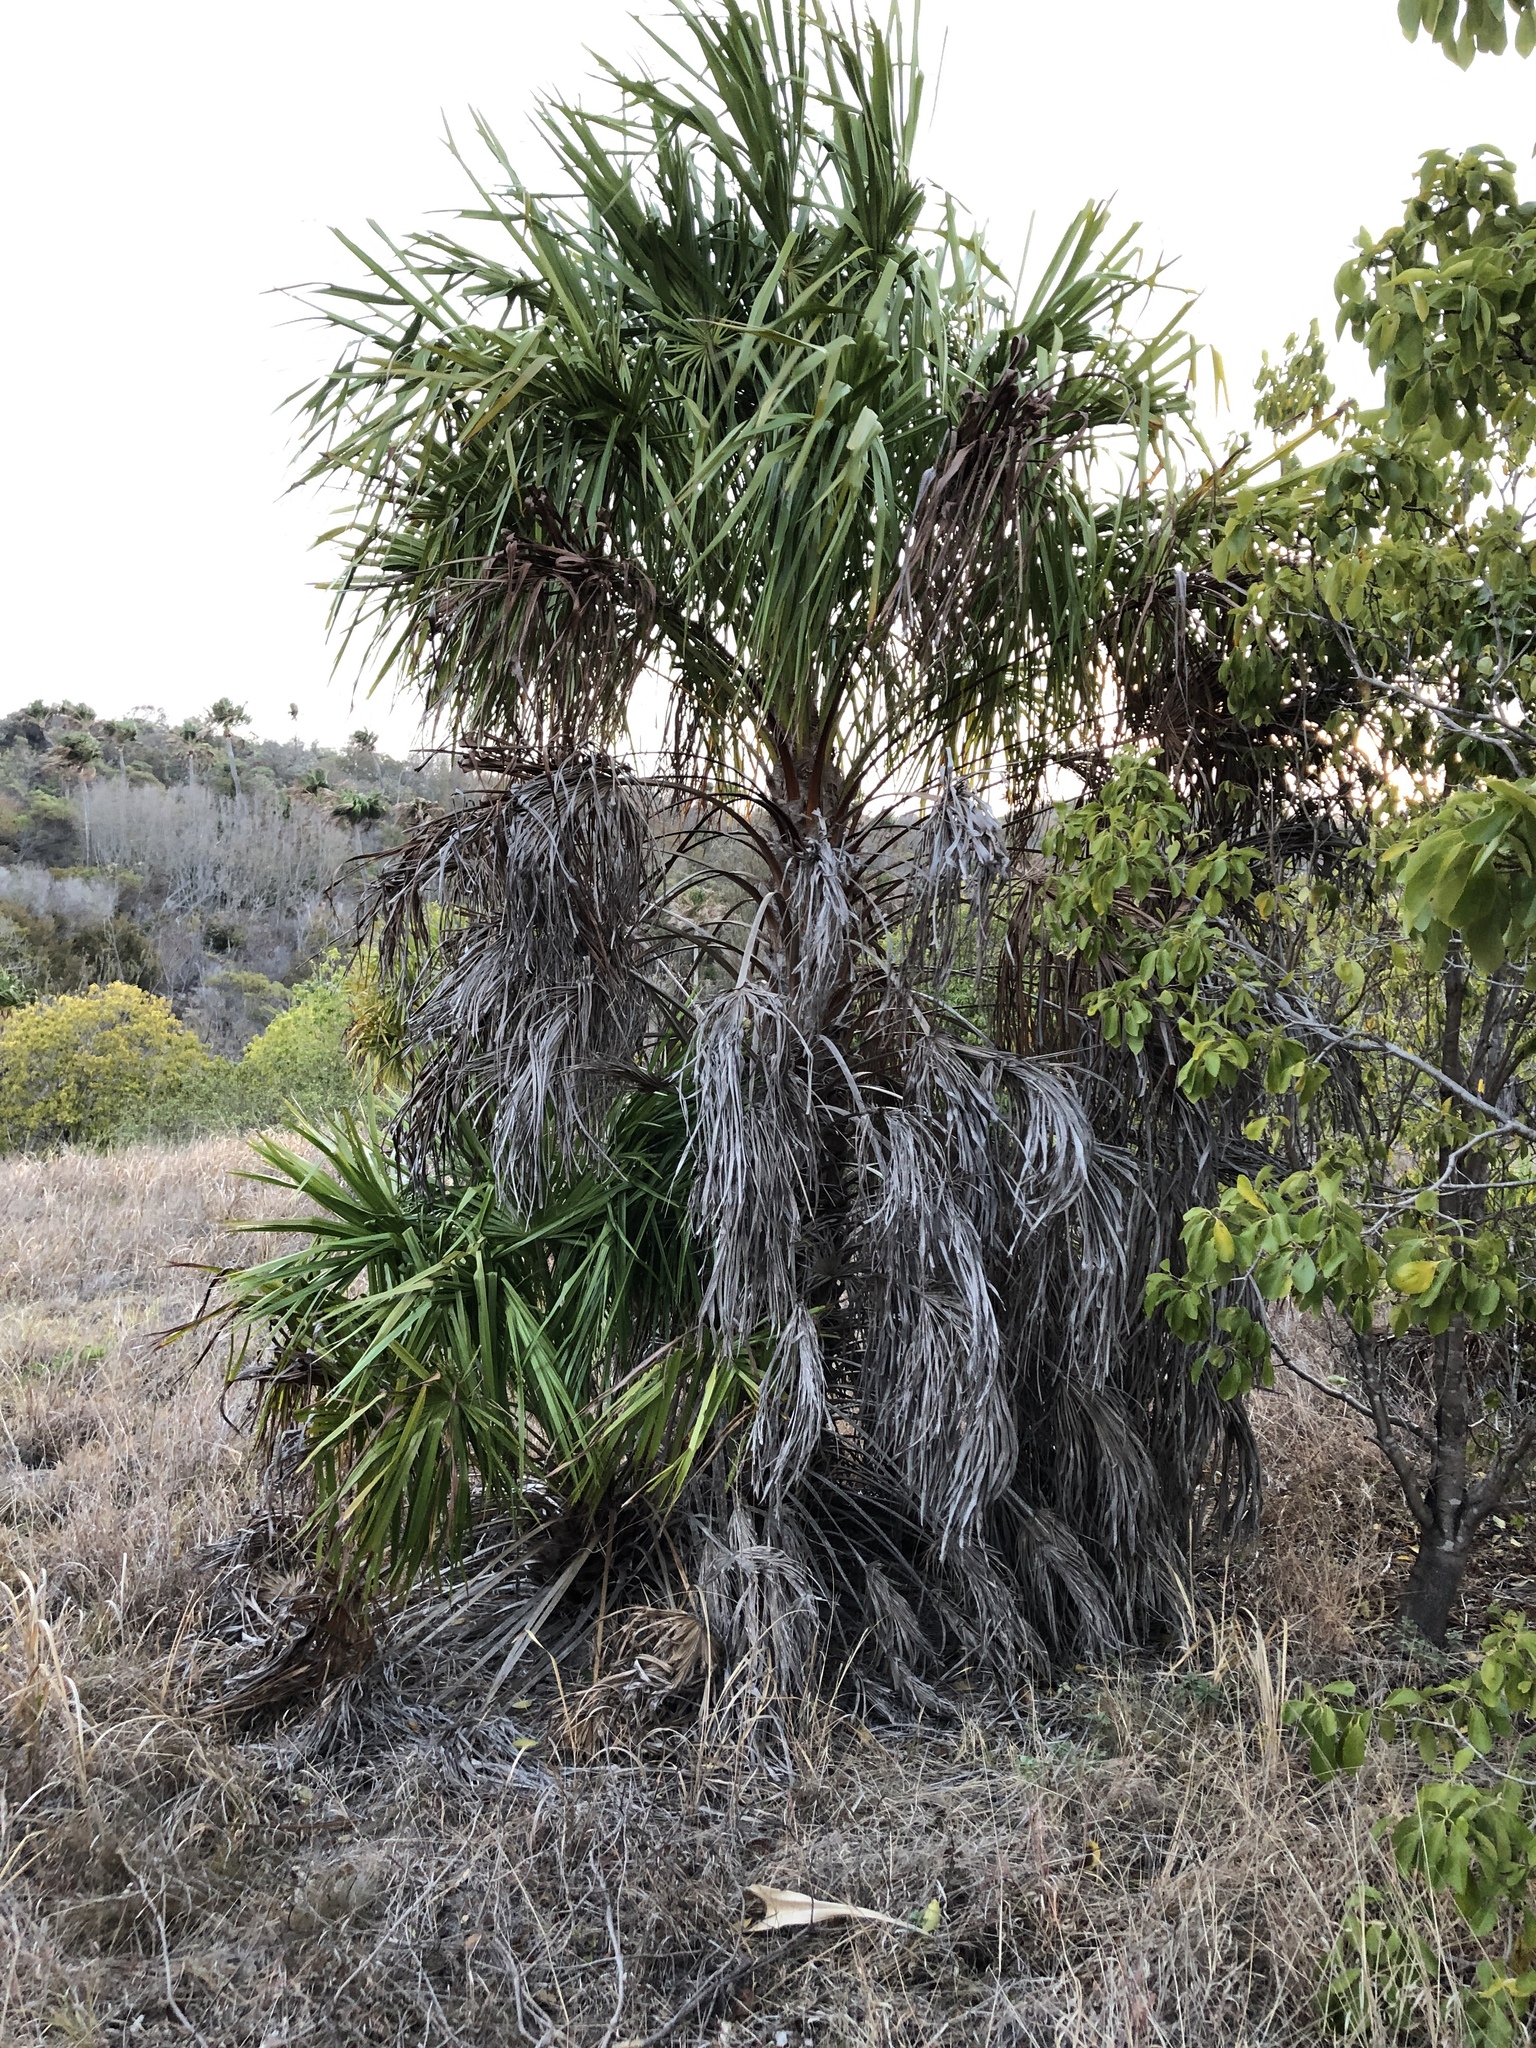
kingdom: Plantae
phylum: Tracheophyta
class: Liliopsida
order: Arecales
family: Arecaceae
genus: Livistona
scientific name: Livistona decora
